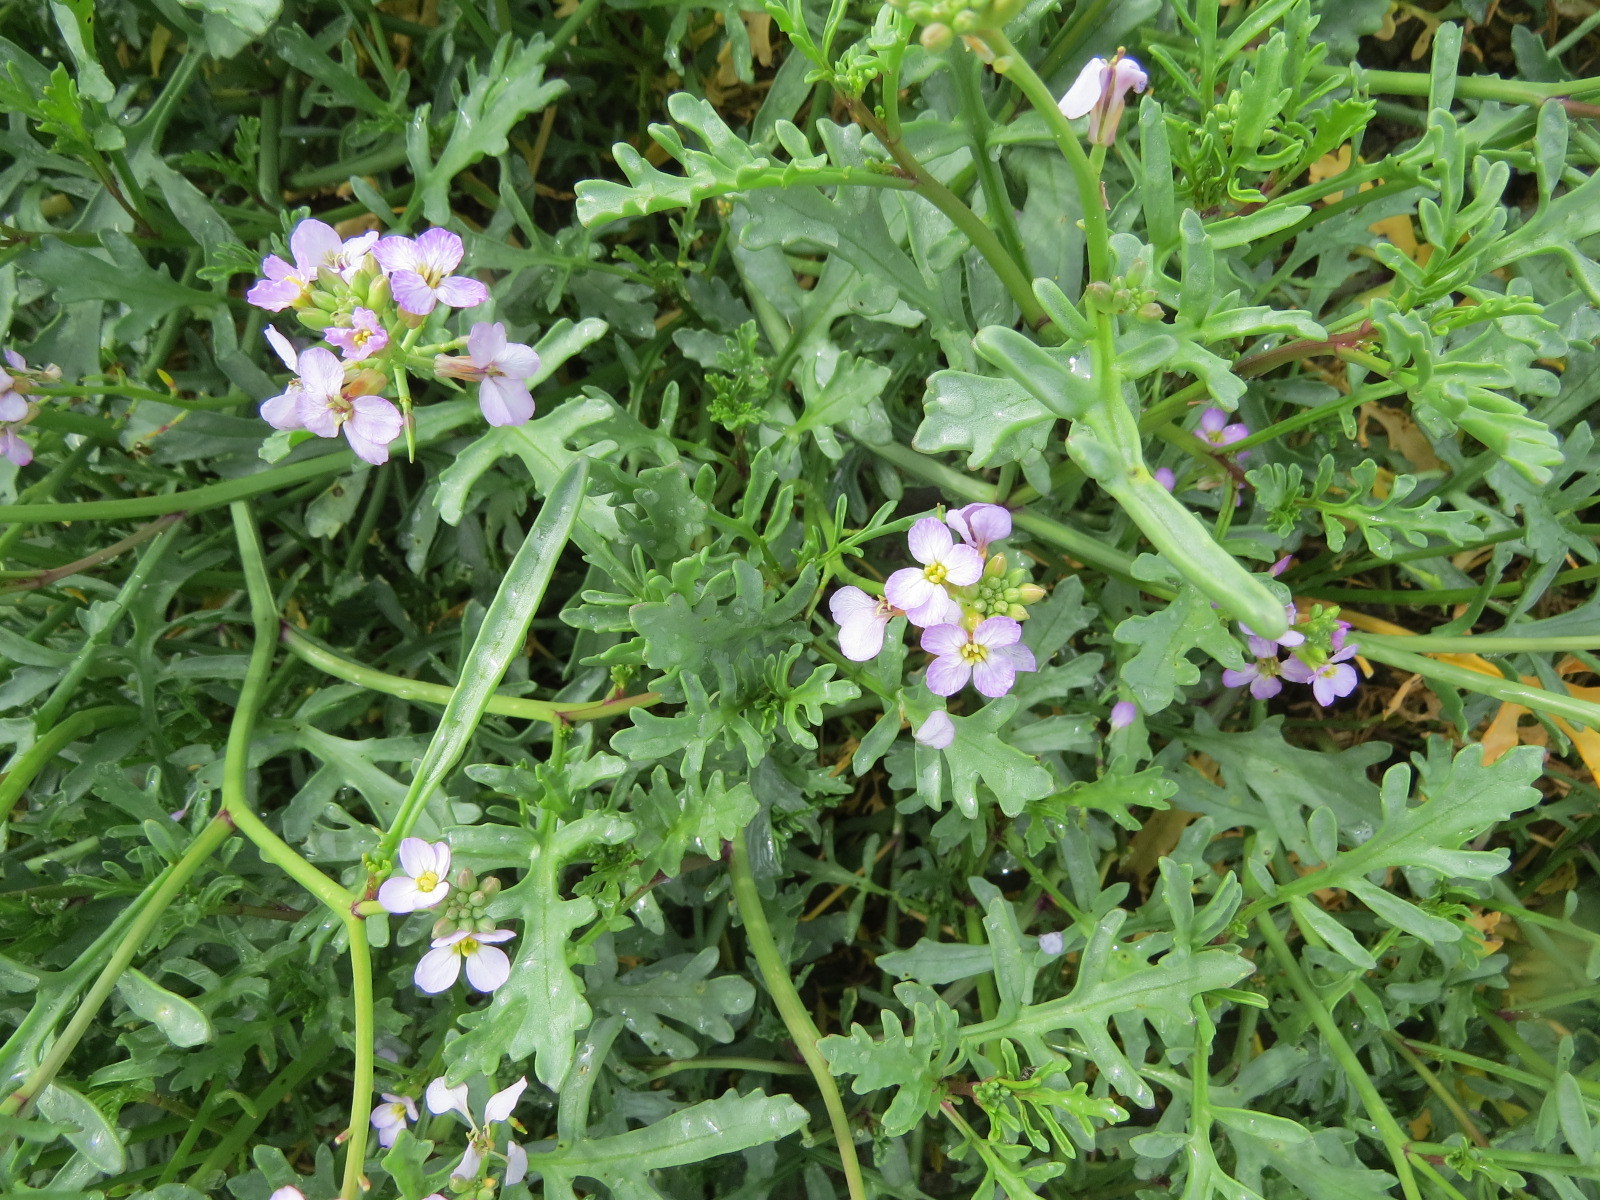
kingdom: Plantae
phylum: Tracheophyta
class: Magnoliopsida
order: Brassicales
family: Brassicaceae
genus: Cakile
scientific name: Cakile maritima
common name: Sea rocket
